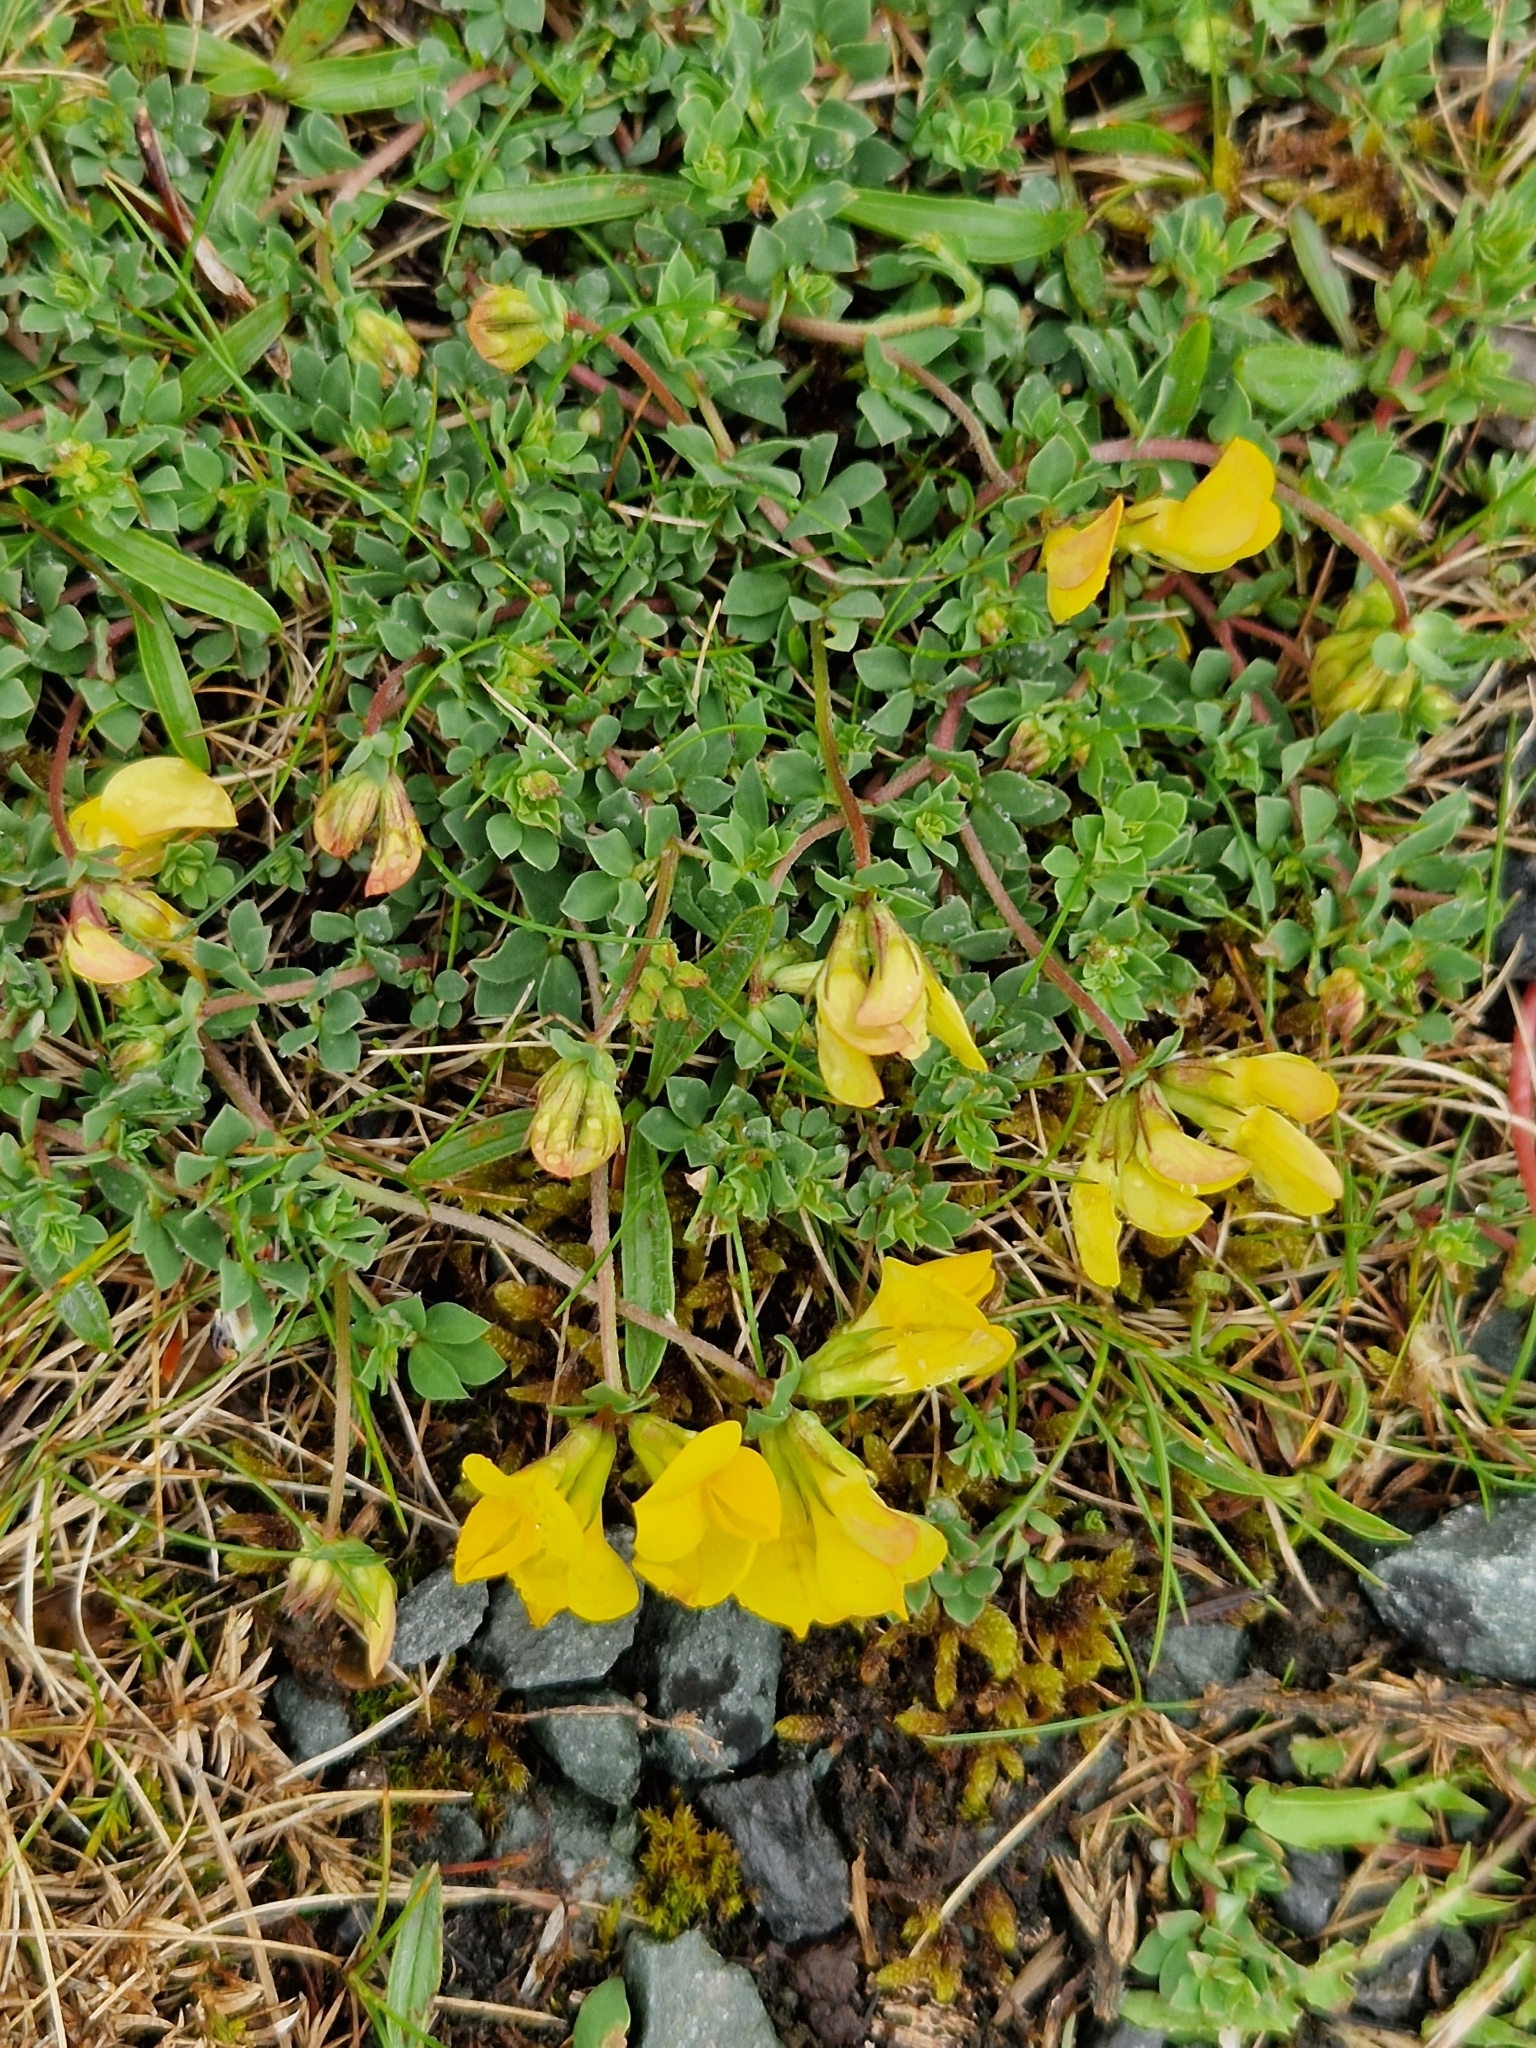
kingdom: Plantae
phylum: Tracheophyta
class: Magnoliopsida
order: Fabales
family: Fabaceae
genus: Lotus
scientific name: Lotus corniculatus
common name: Common bird's-foot-trefoil
